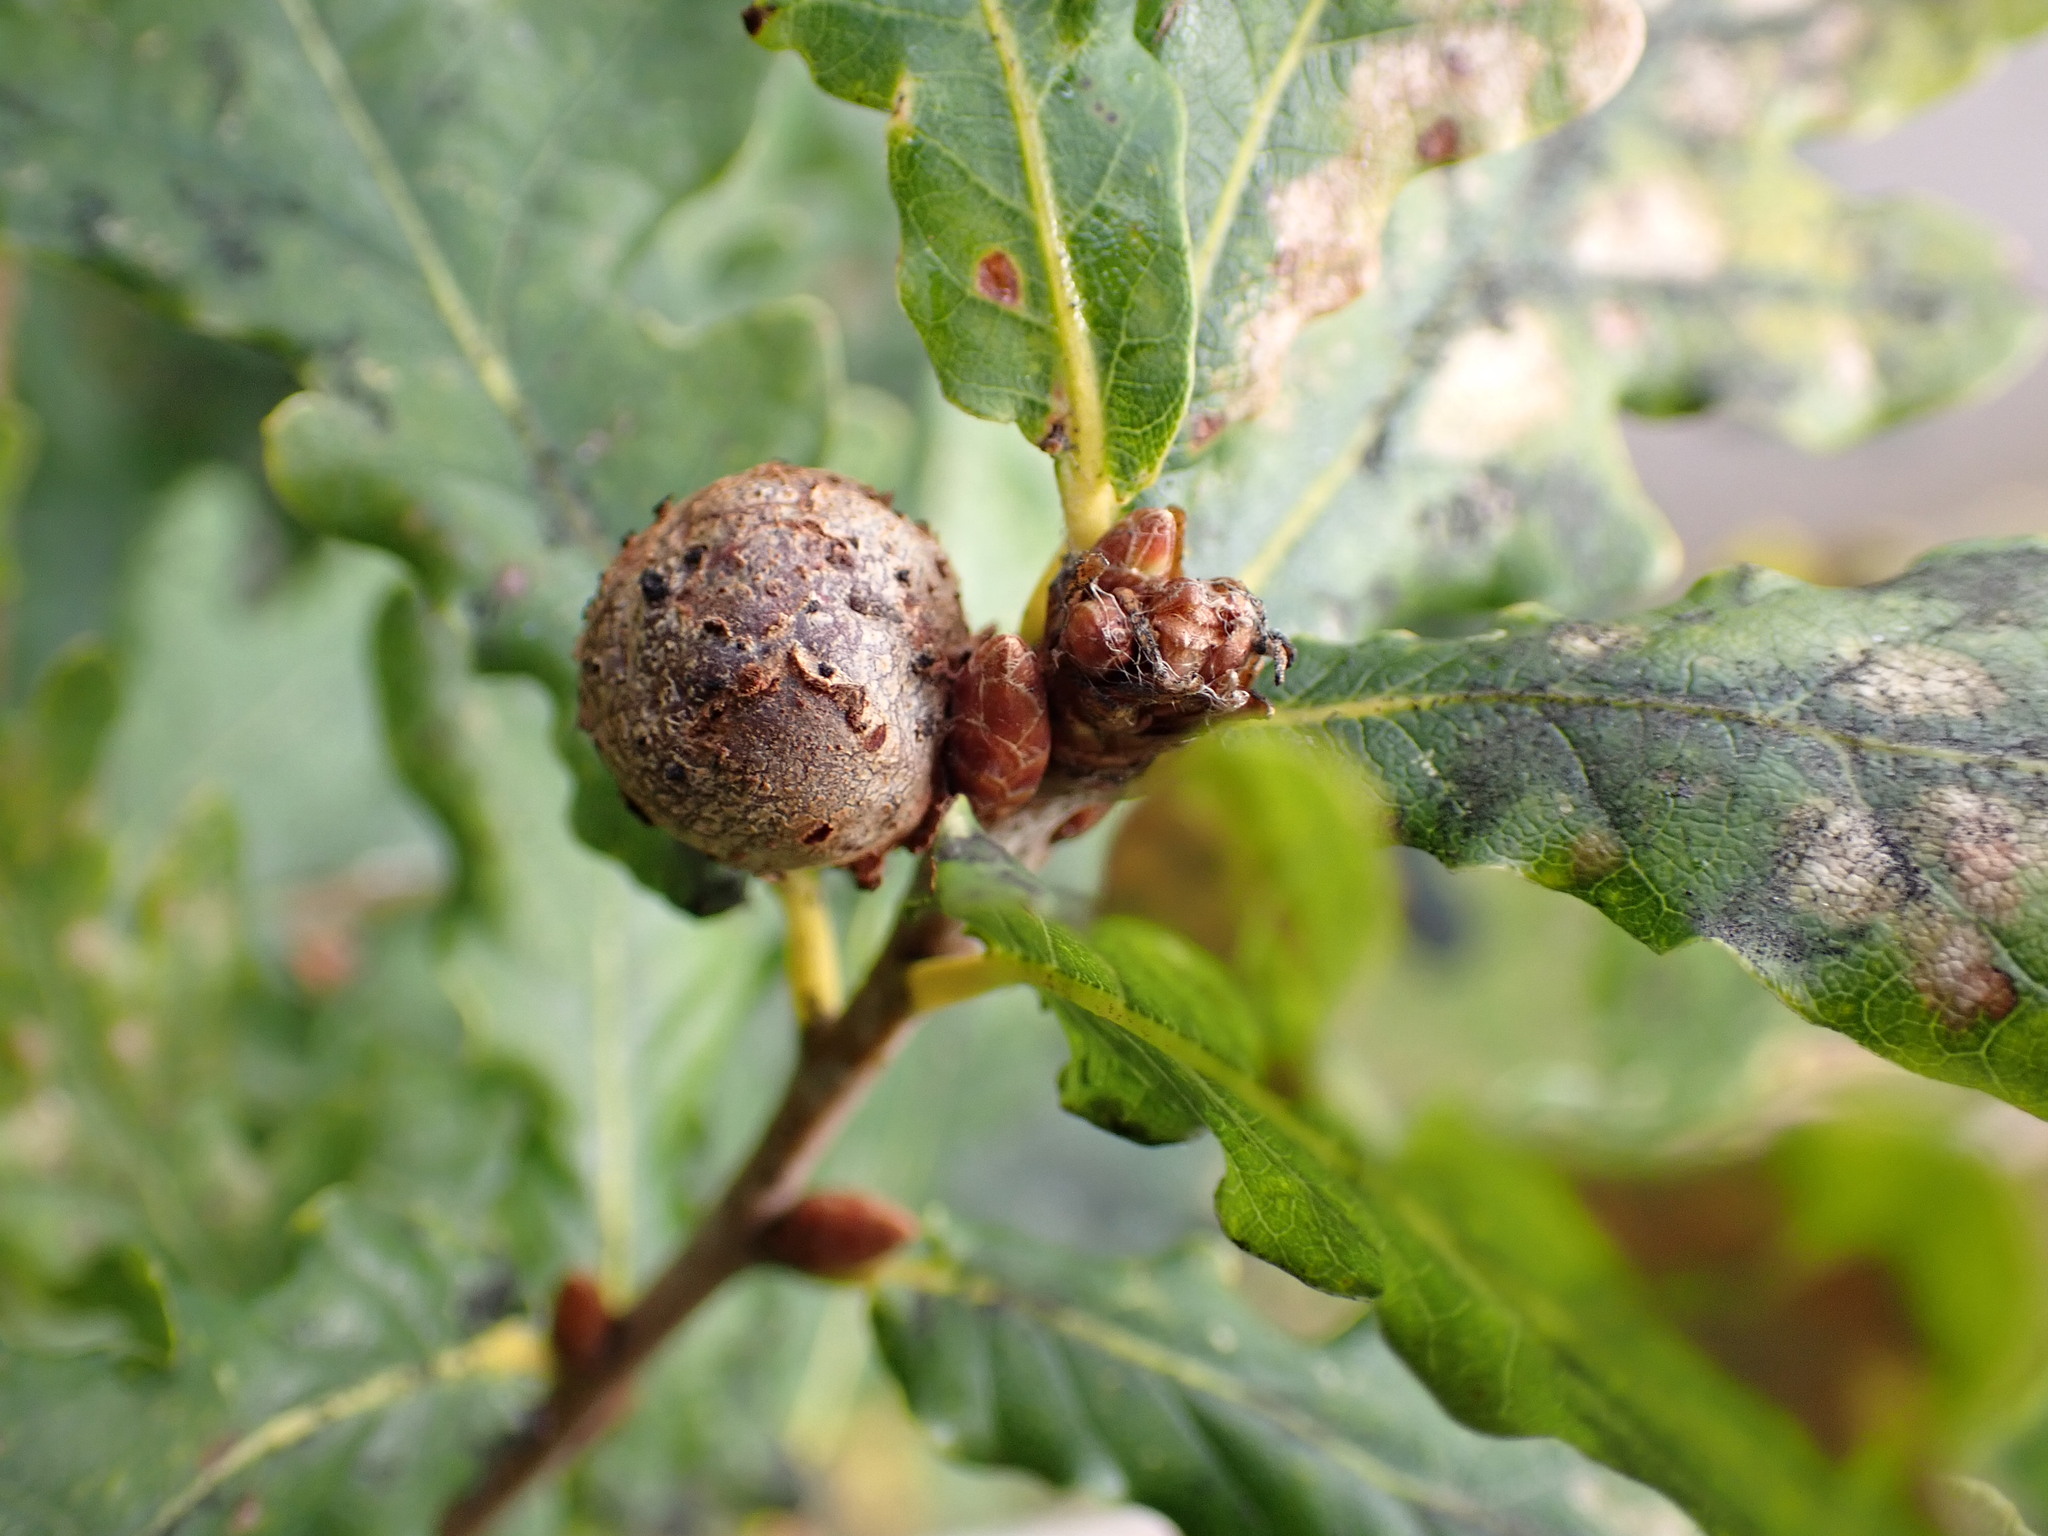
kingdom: Animalia
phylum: Arthropoda
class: Insecta
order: Hymenoptera
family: Cynipidae
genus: Andricus
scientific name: Andricus lignicolus
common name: Cola-nut gall
